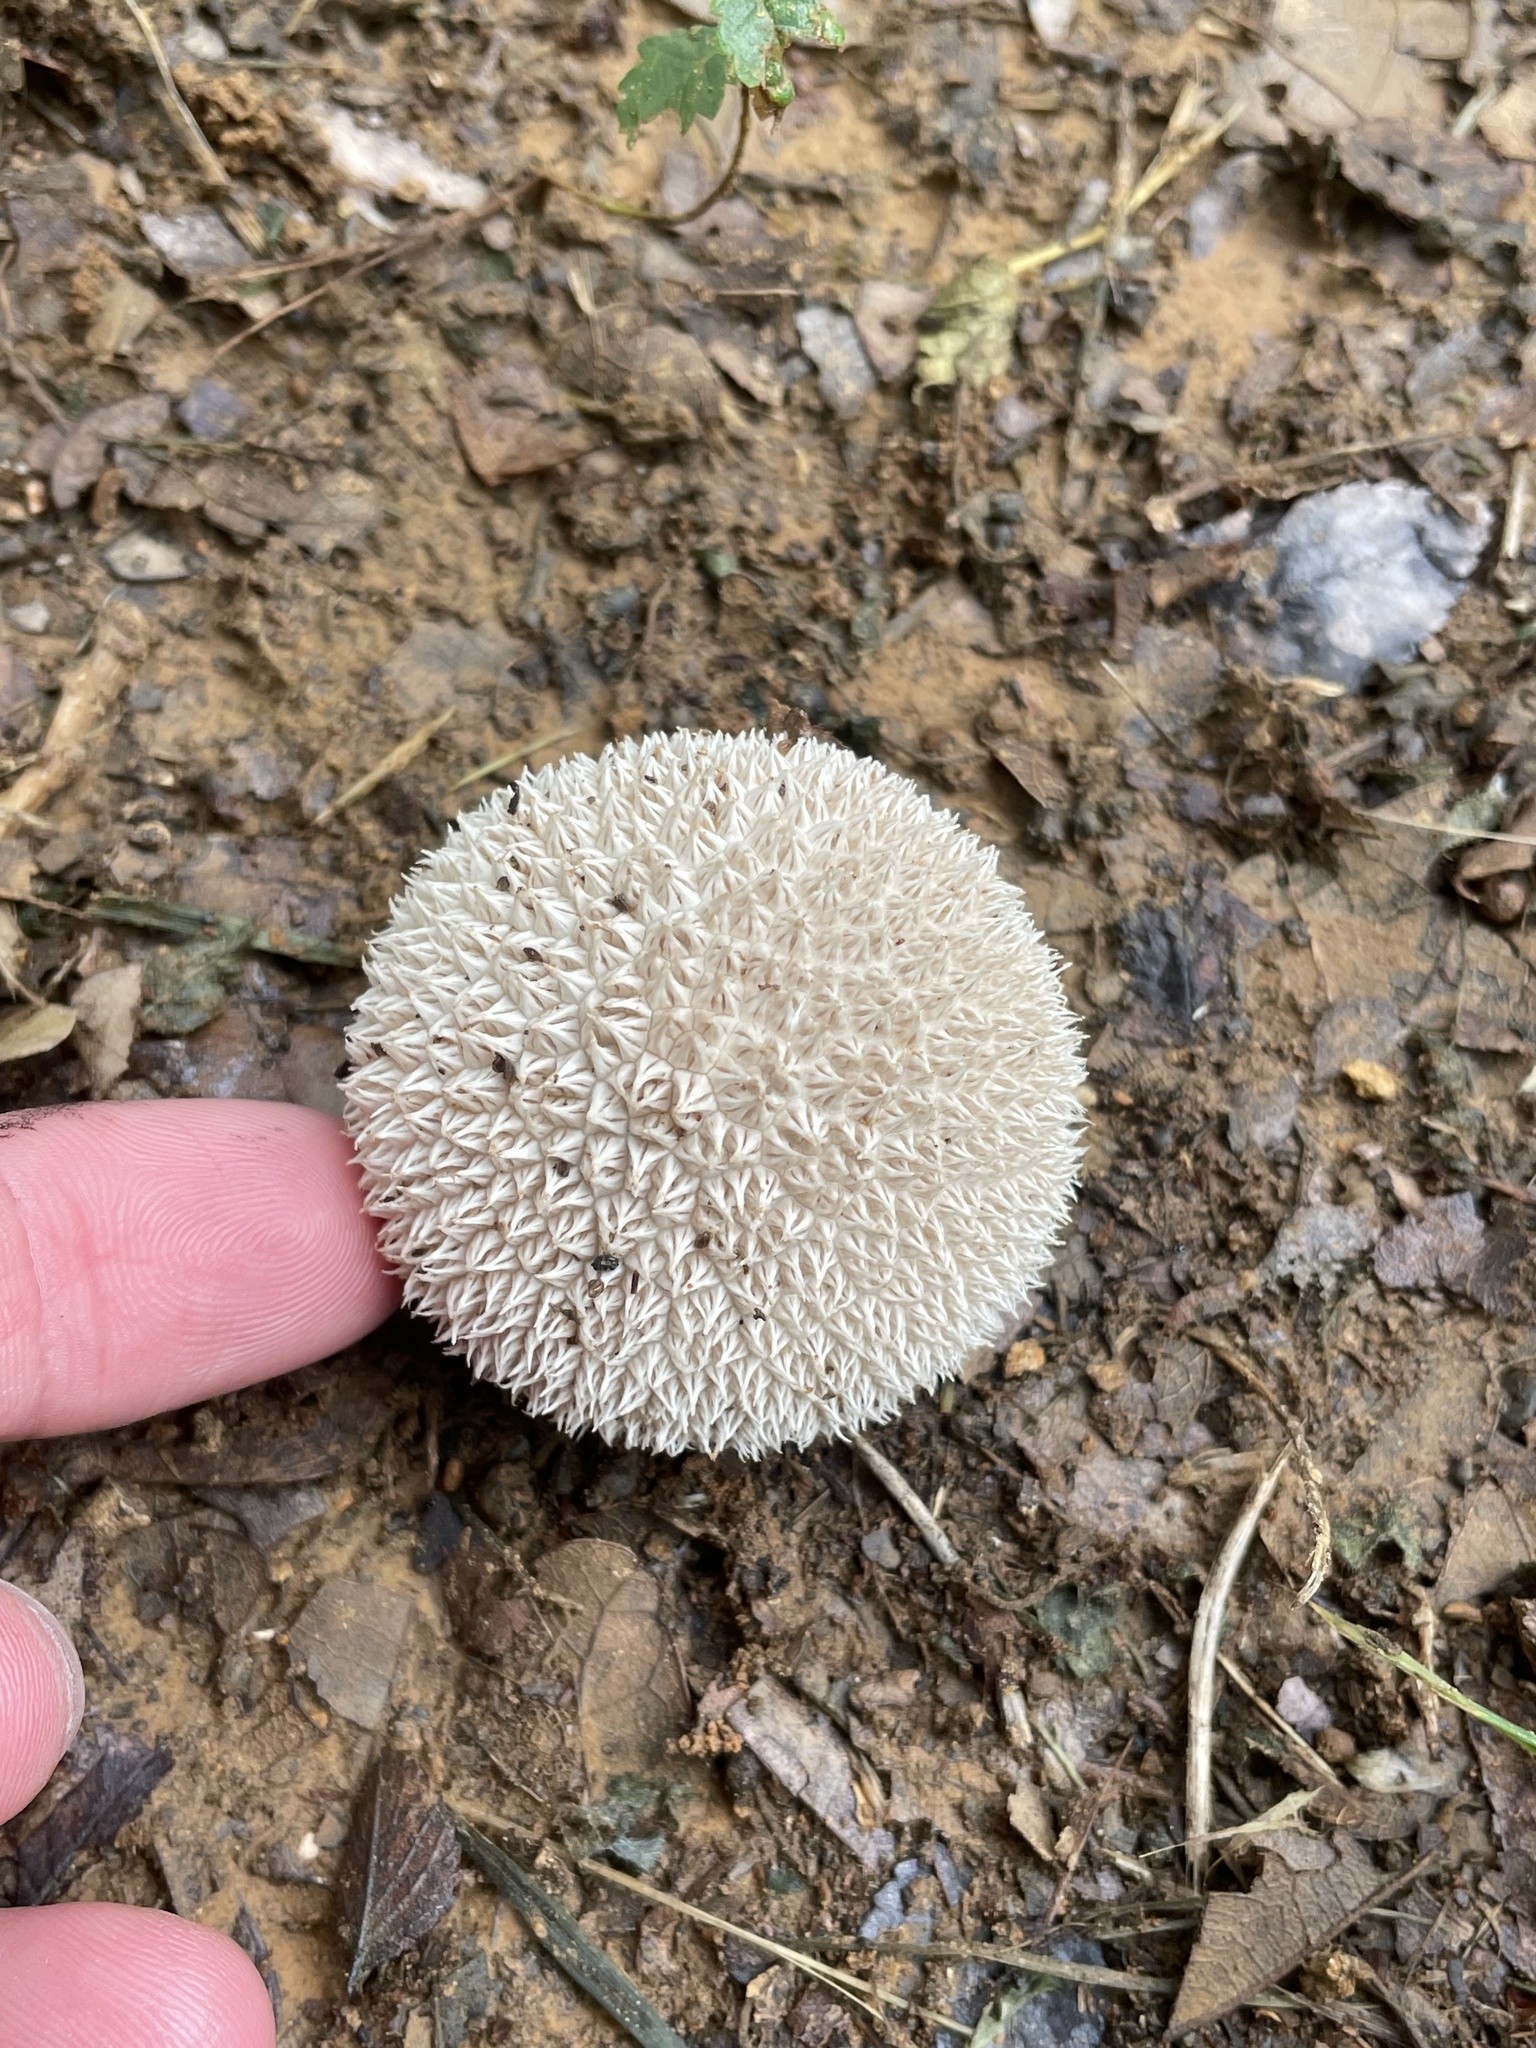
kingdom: Fungi
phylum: Basidiomycota
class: Agaricomycetes
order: Agaricales
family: Agaricaceae
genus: Lycoperdon
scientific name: Lycoperdon marginatum
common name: Peeling puffball
